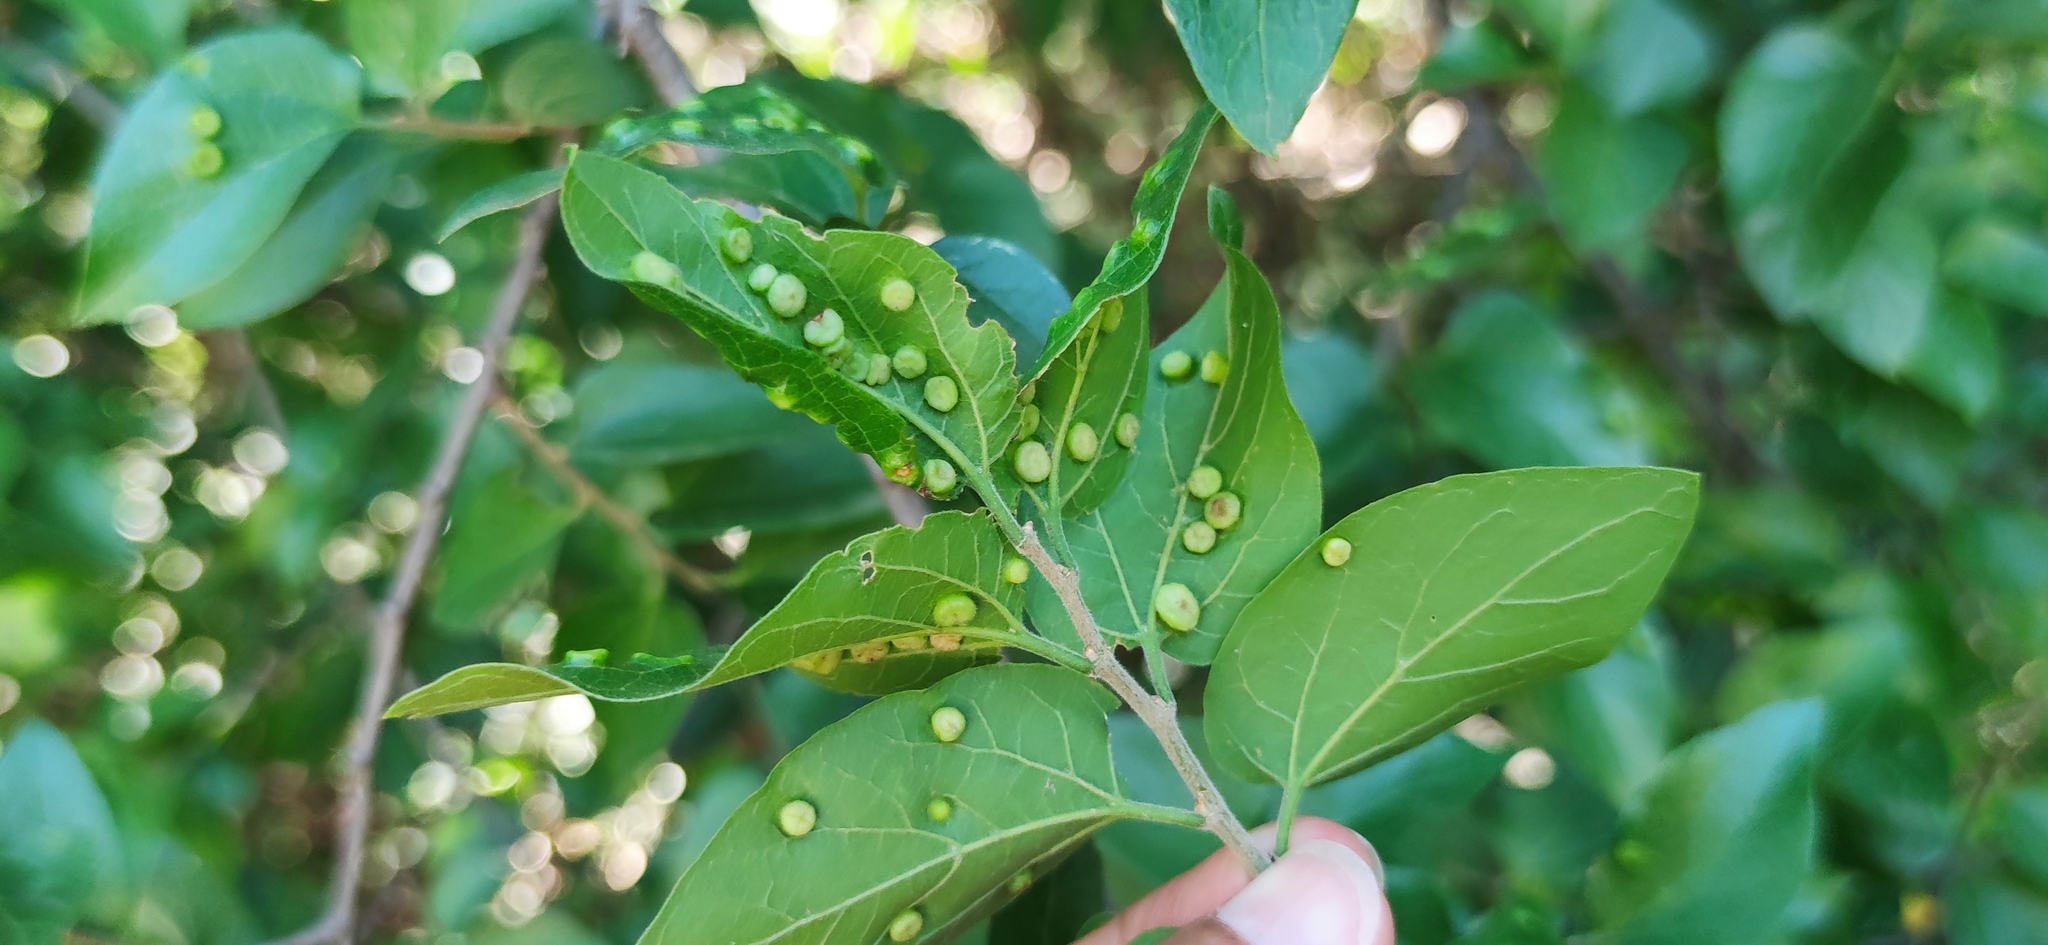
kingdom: Animalia
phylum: Arthropoda
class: Insecta
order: Hemiptera
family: Aphalaridae
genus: Pachypsylla
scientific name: Pachypsylla celtidismamma
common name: Hackberry nipplegall psyllid
